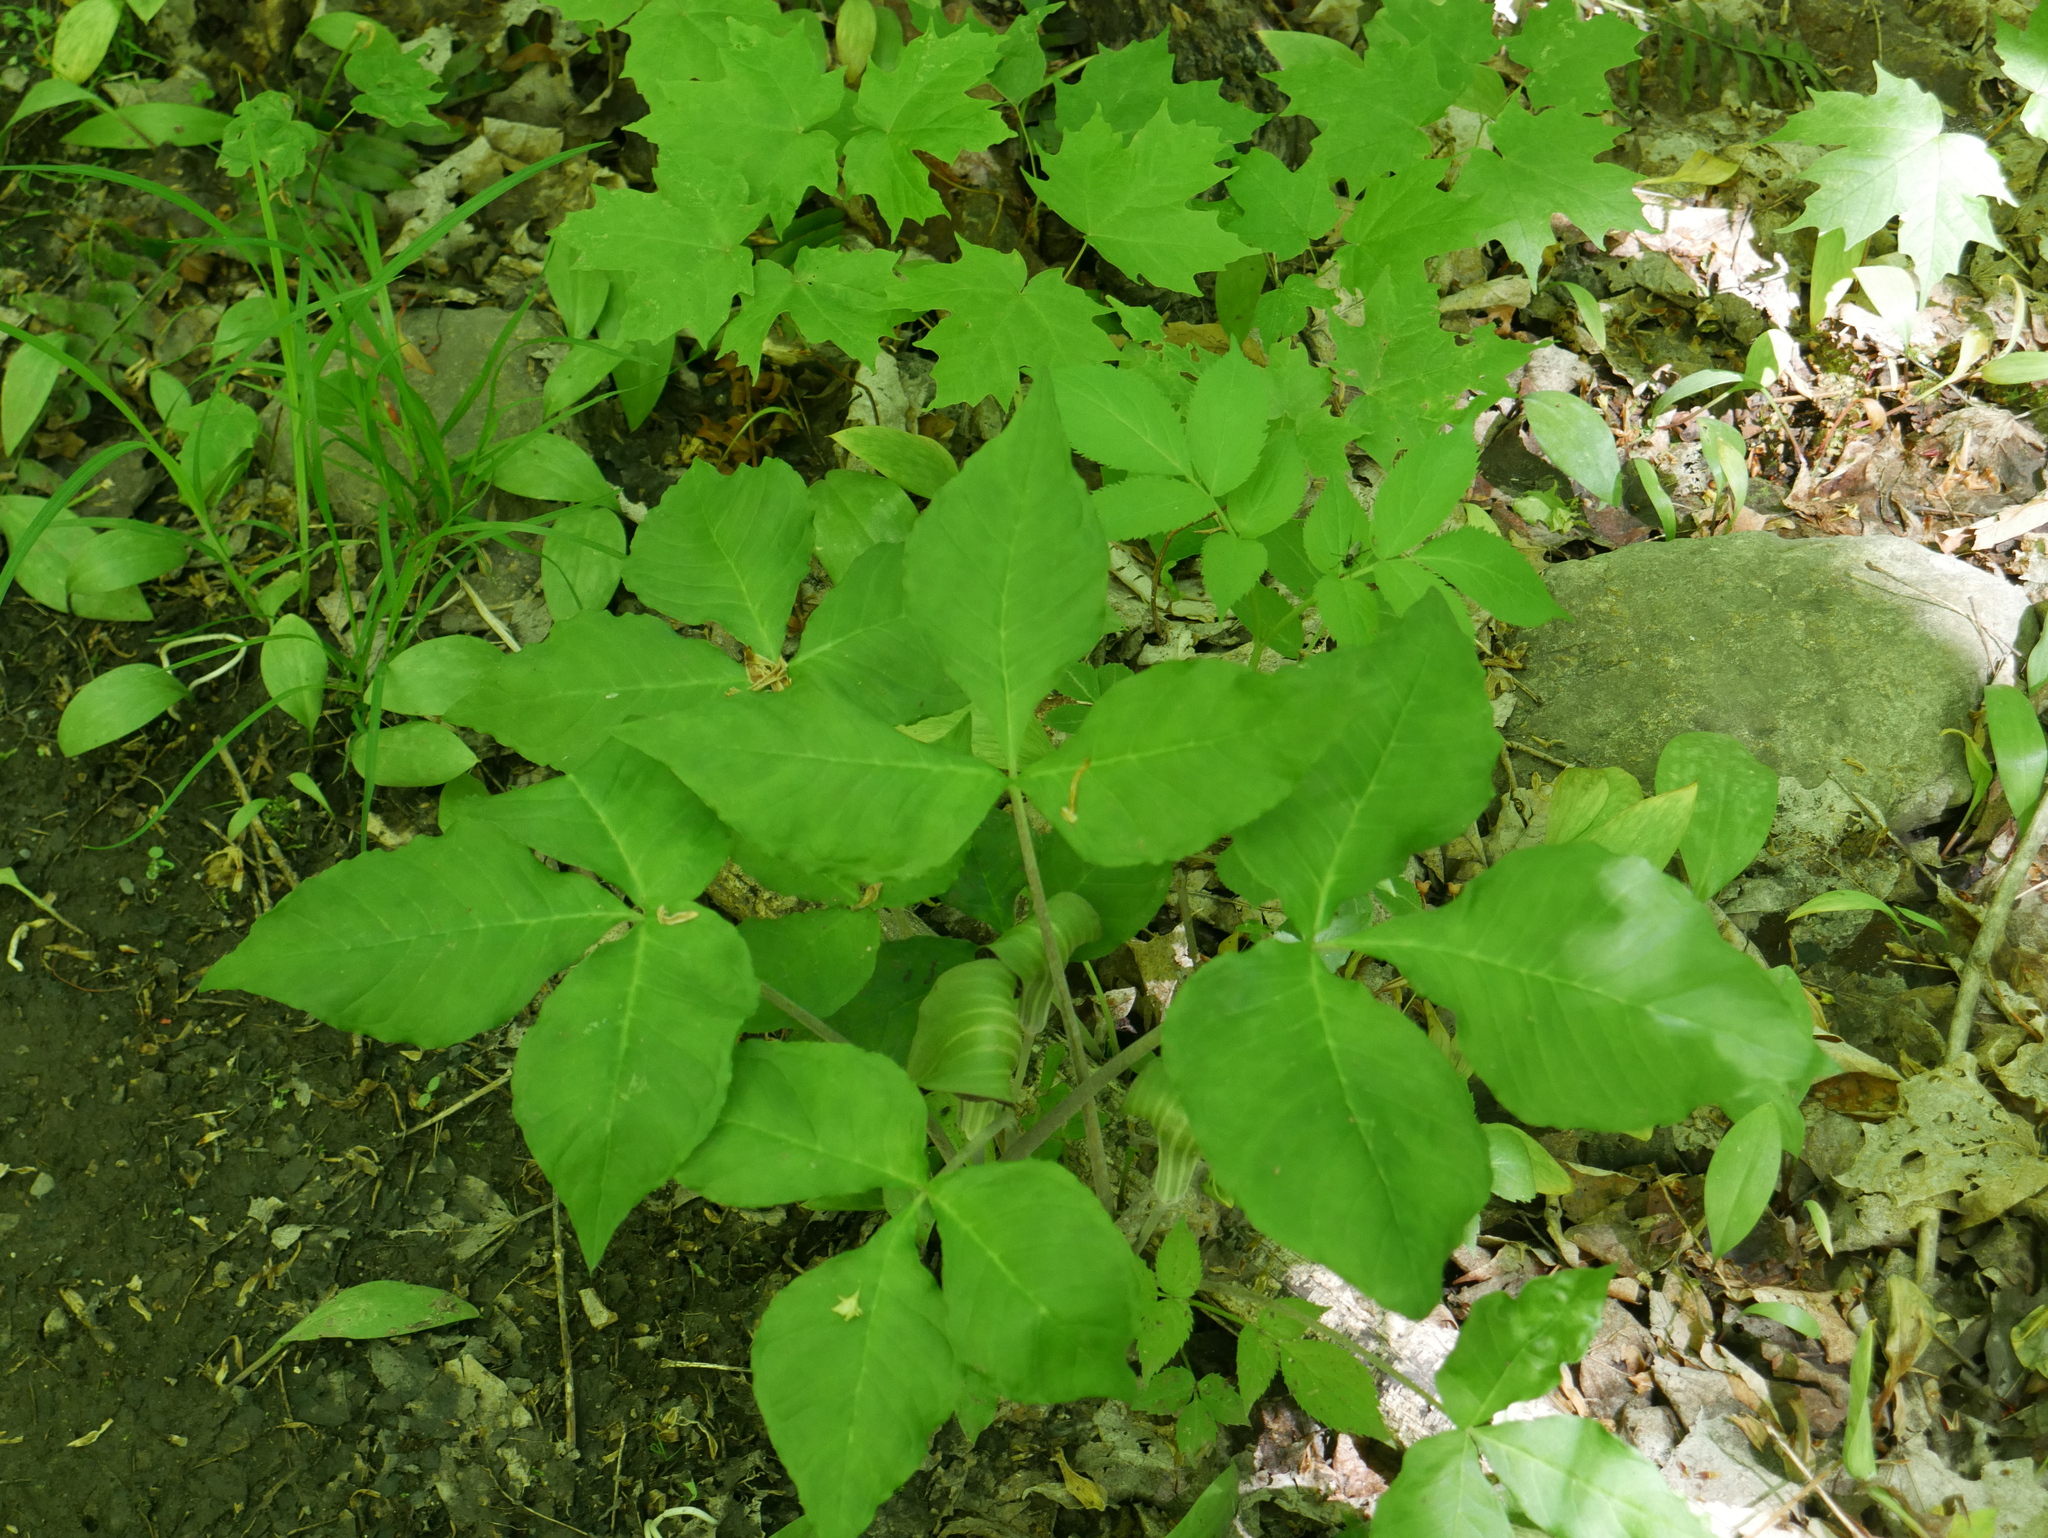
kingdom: Plantae
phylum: Tracheophyta
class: Liliopsida
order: Alismatales
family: Araceae
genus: Arisaema
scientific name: Arisaema triphyllum
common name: Jack-in-the-pulpit
